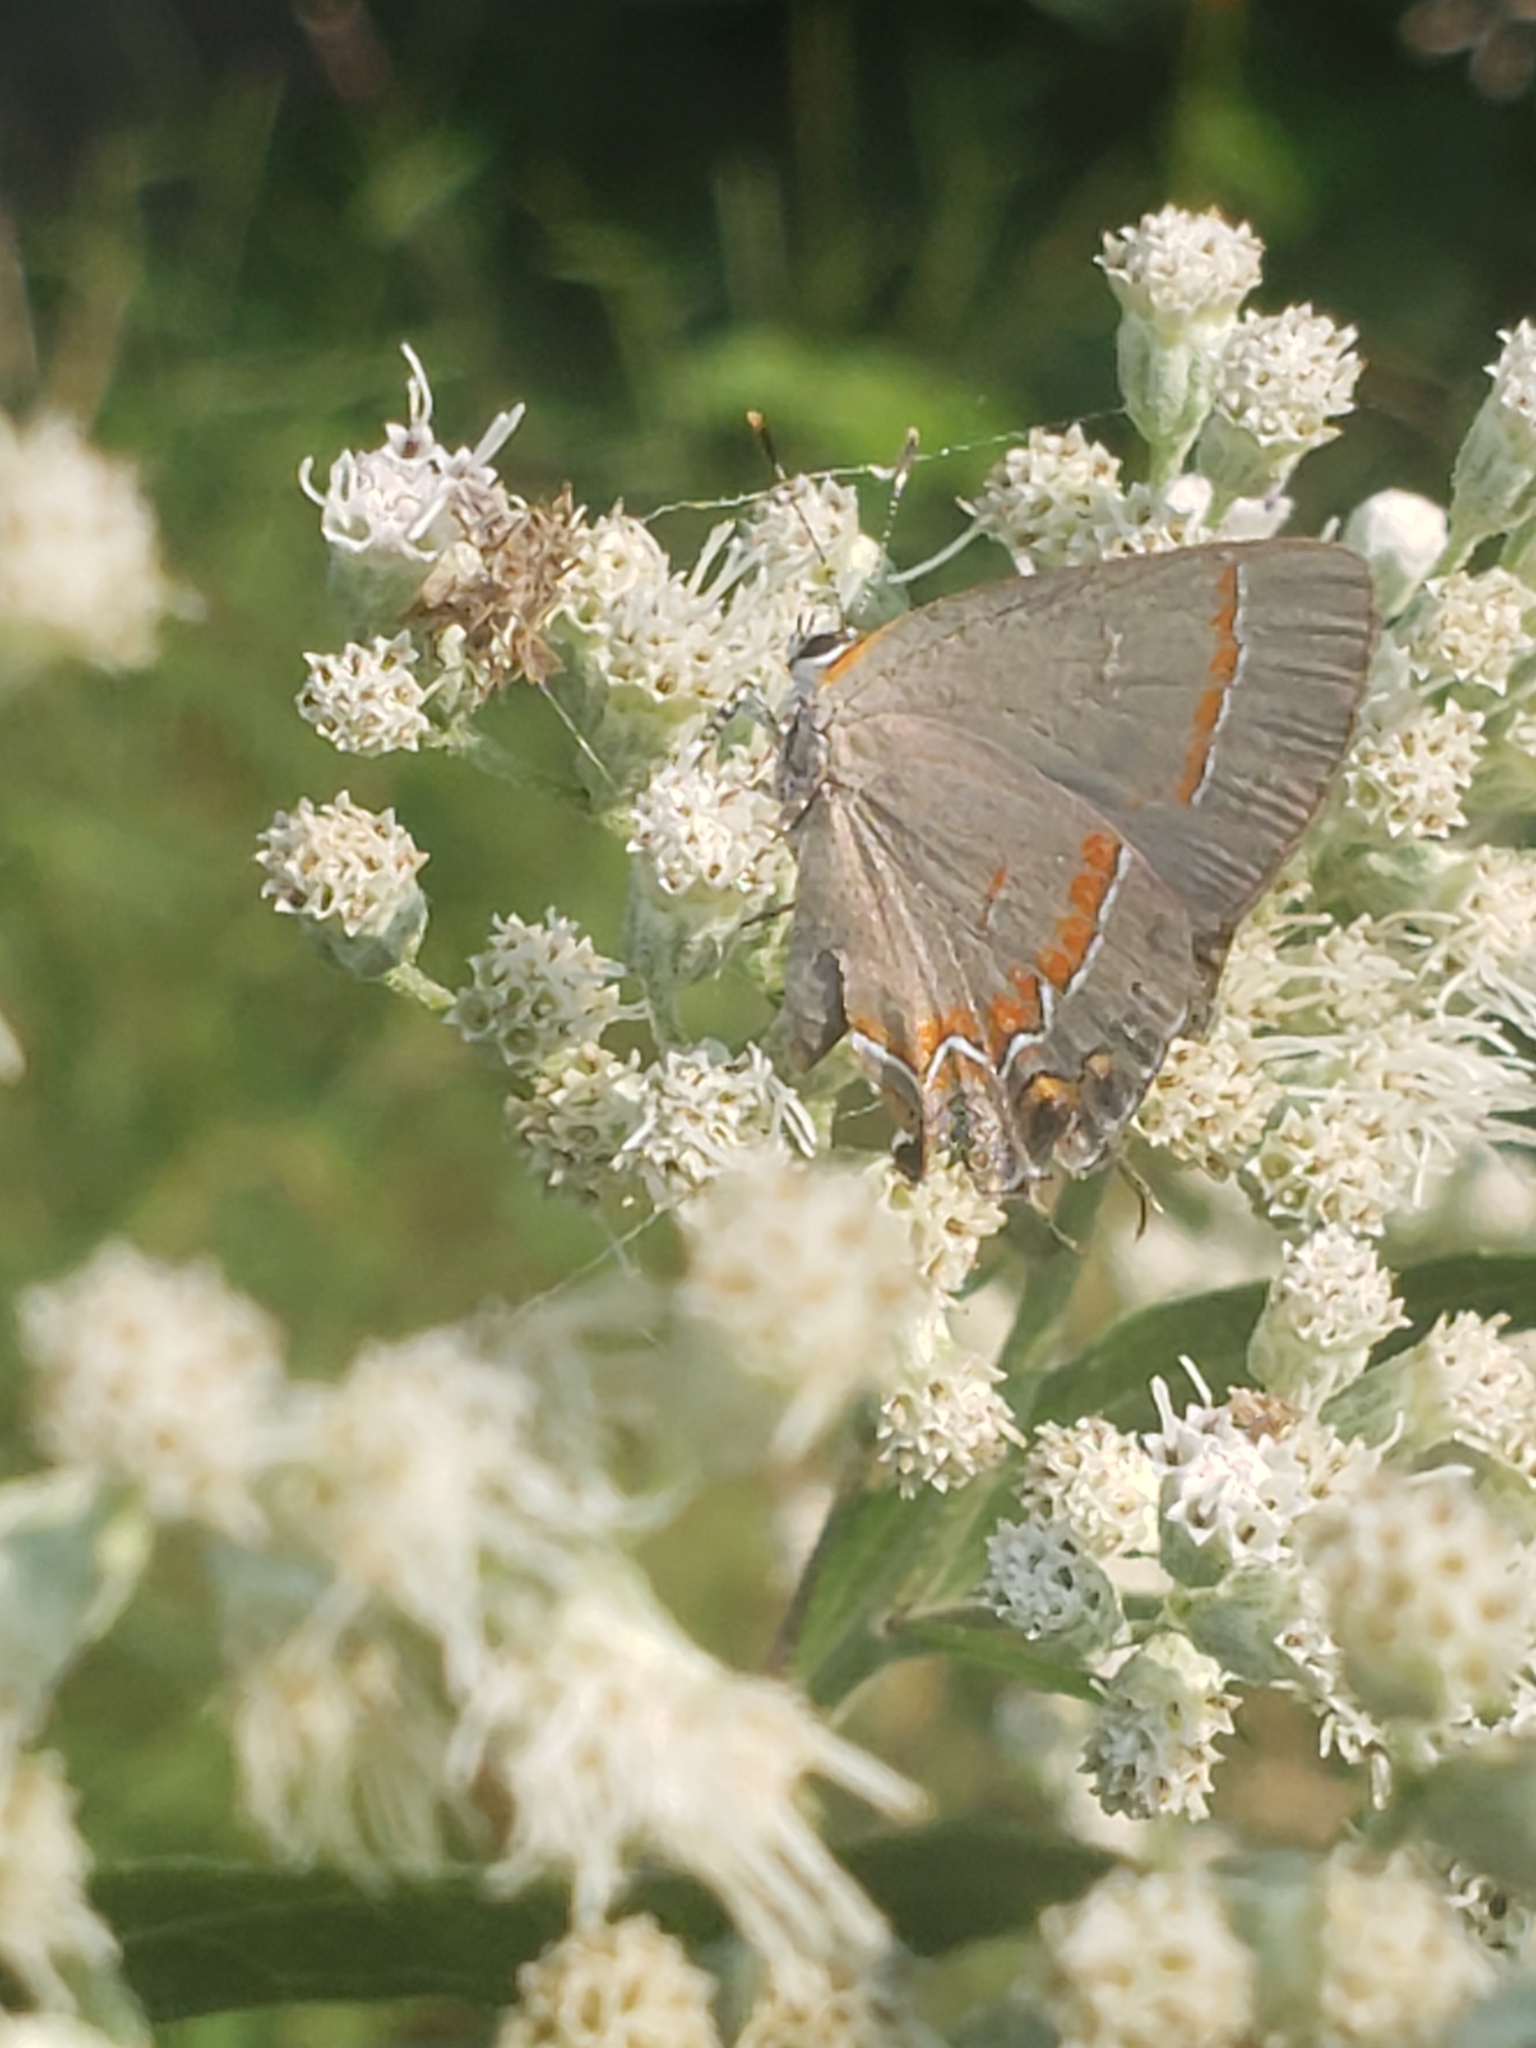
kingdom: Animalia
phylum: Arthropoda
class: Insecta
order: Lepidoptera
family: Lycaenidae
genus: Calycopis
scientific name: Calycopis cecrops
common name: Red-banded hairstreak
